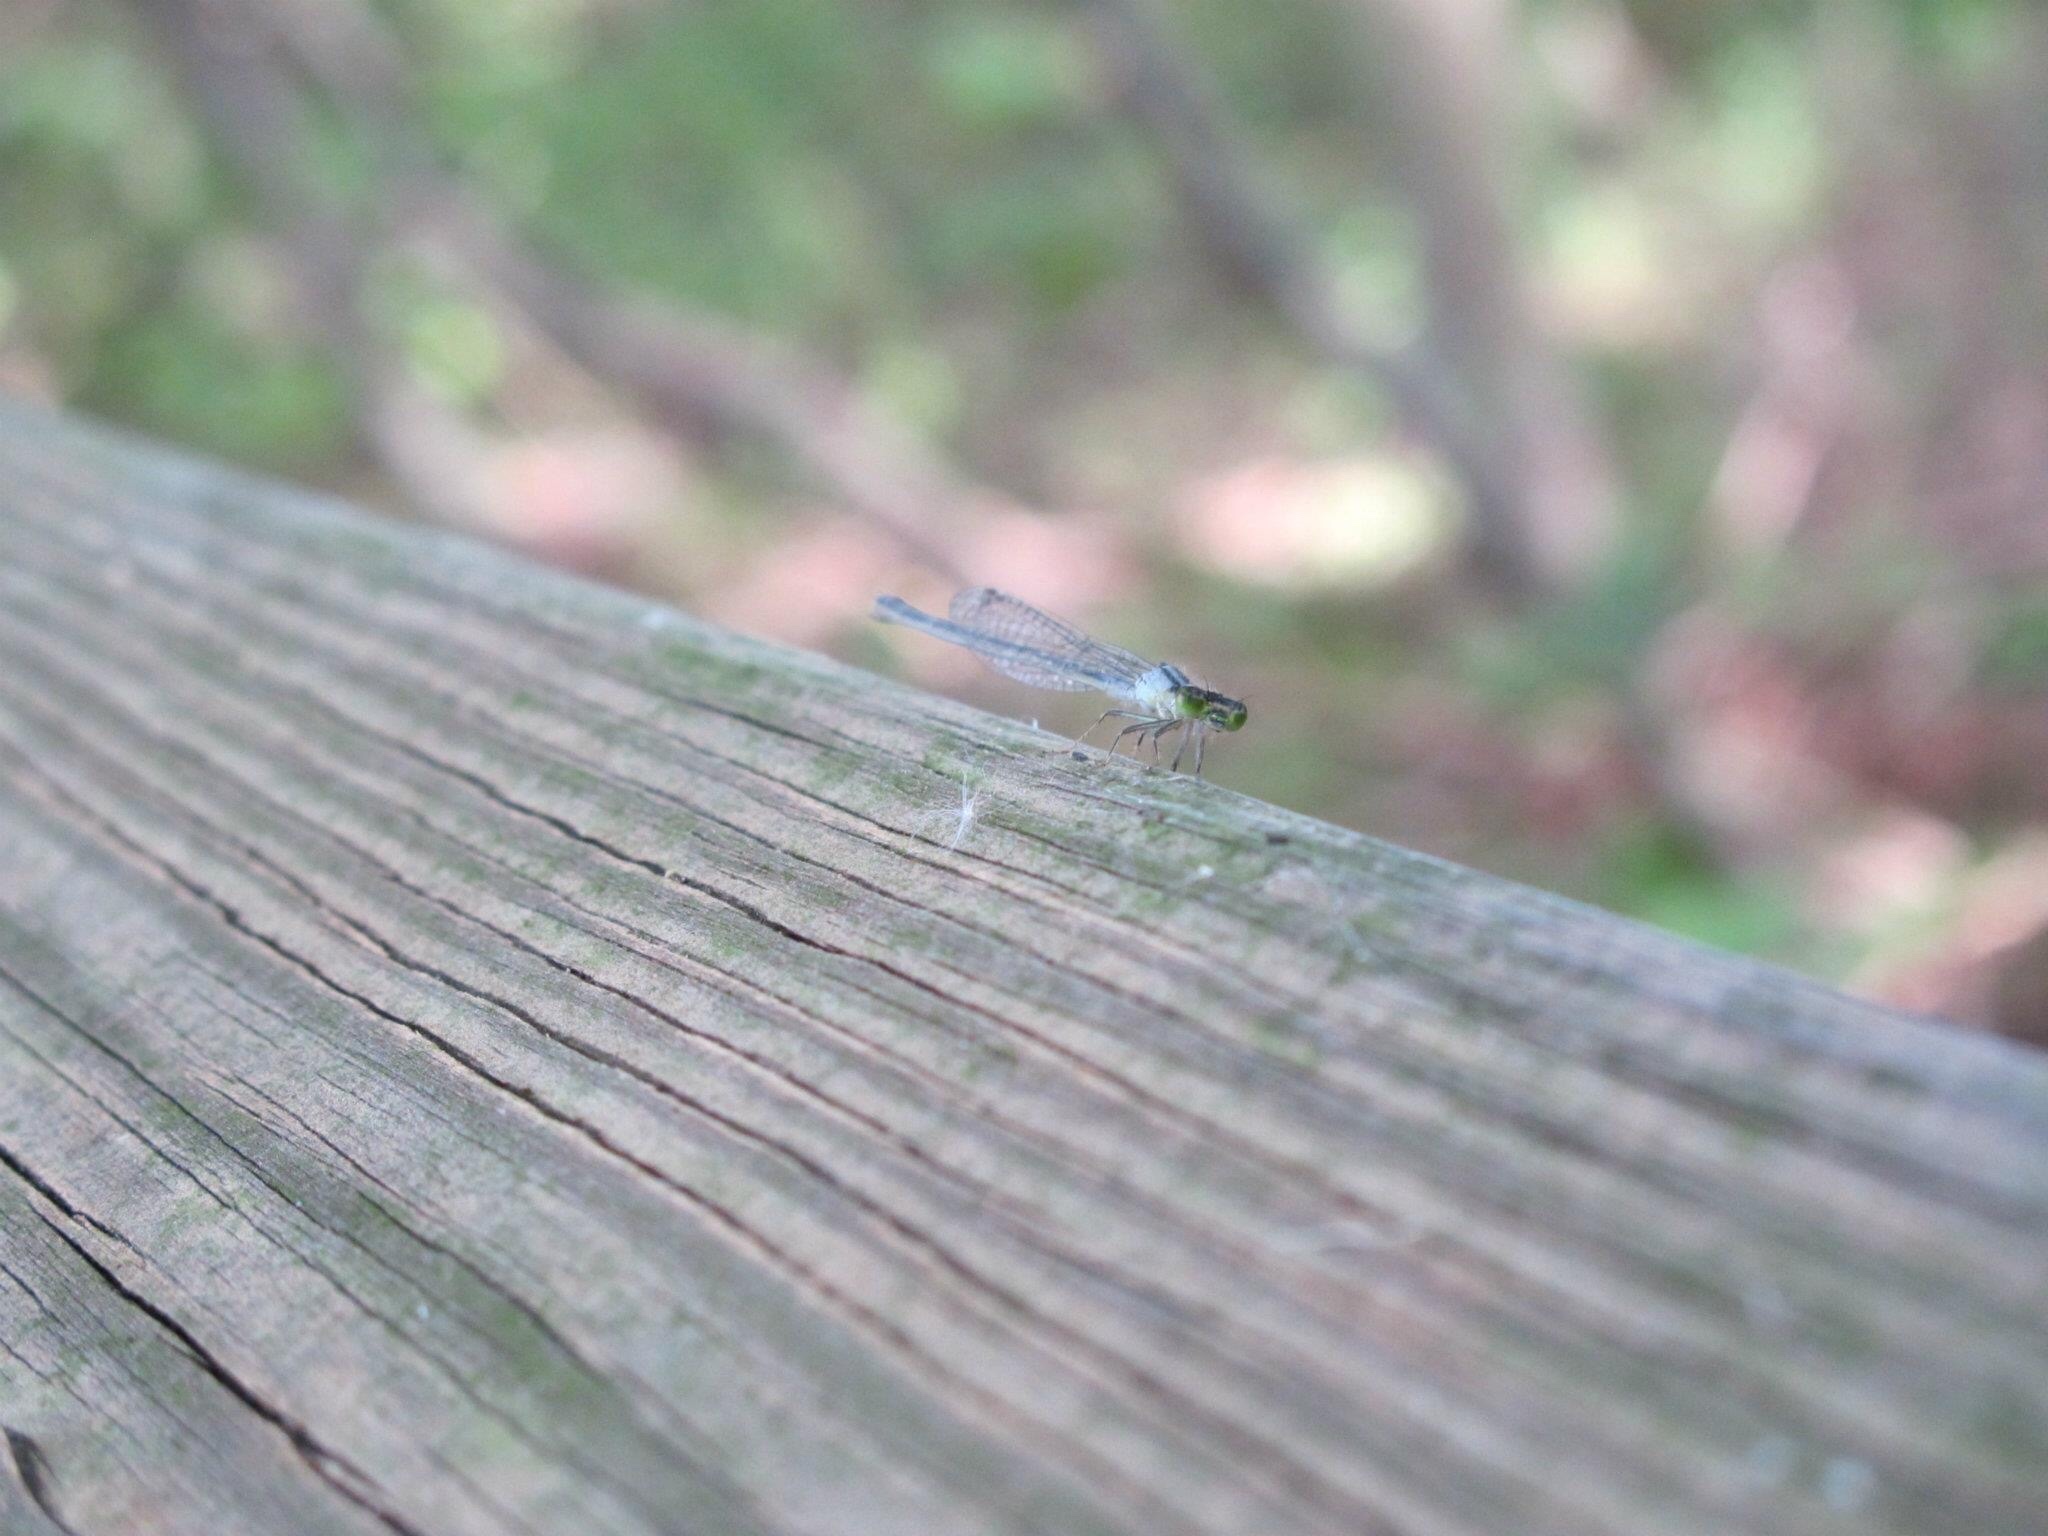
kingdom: Animalia
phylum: Arthropoda
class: Insecta
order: Odonata
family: Coenagrionidae
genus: Ischnura
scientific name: Ischnura verticalis
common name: Eastern forktail
